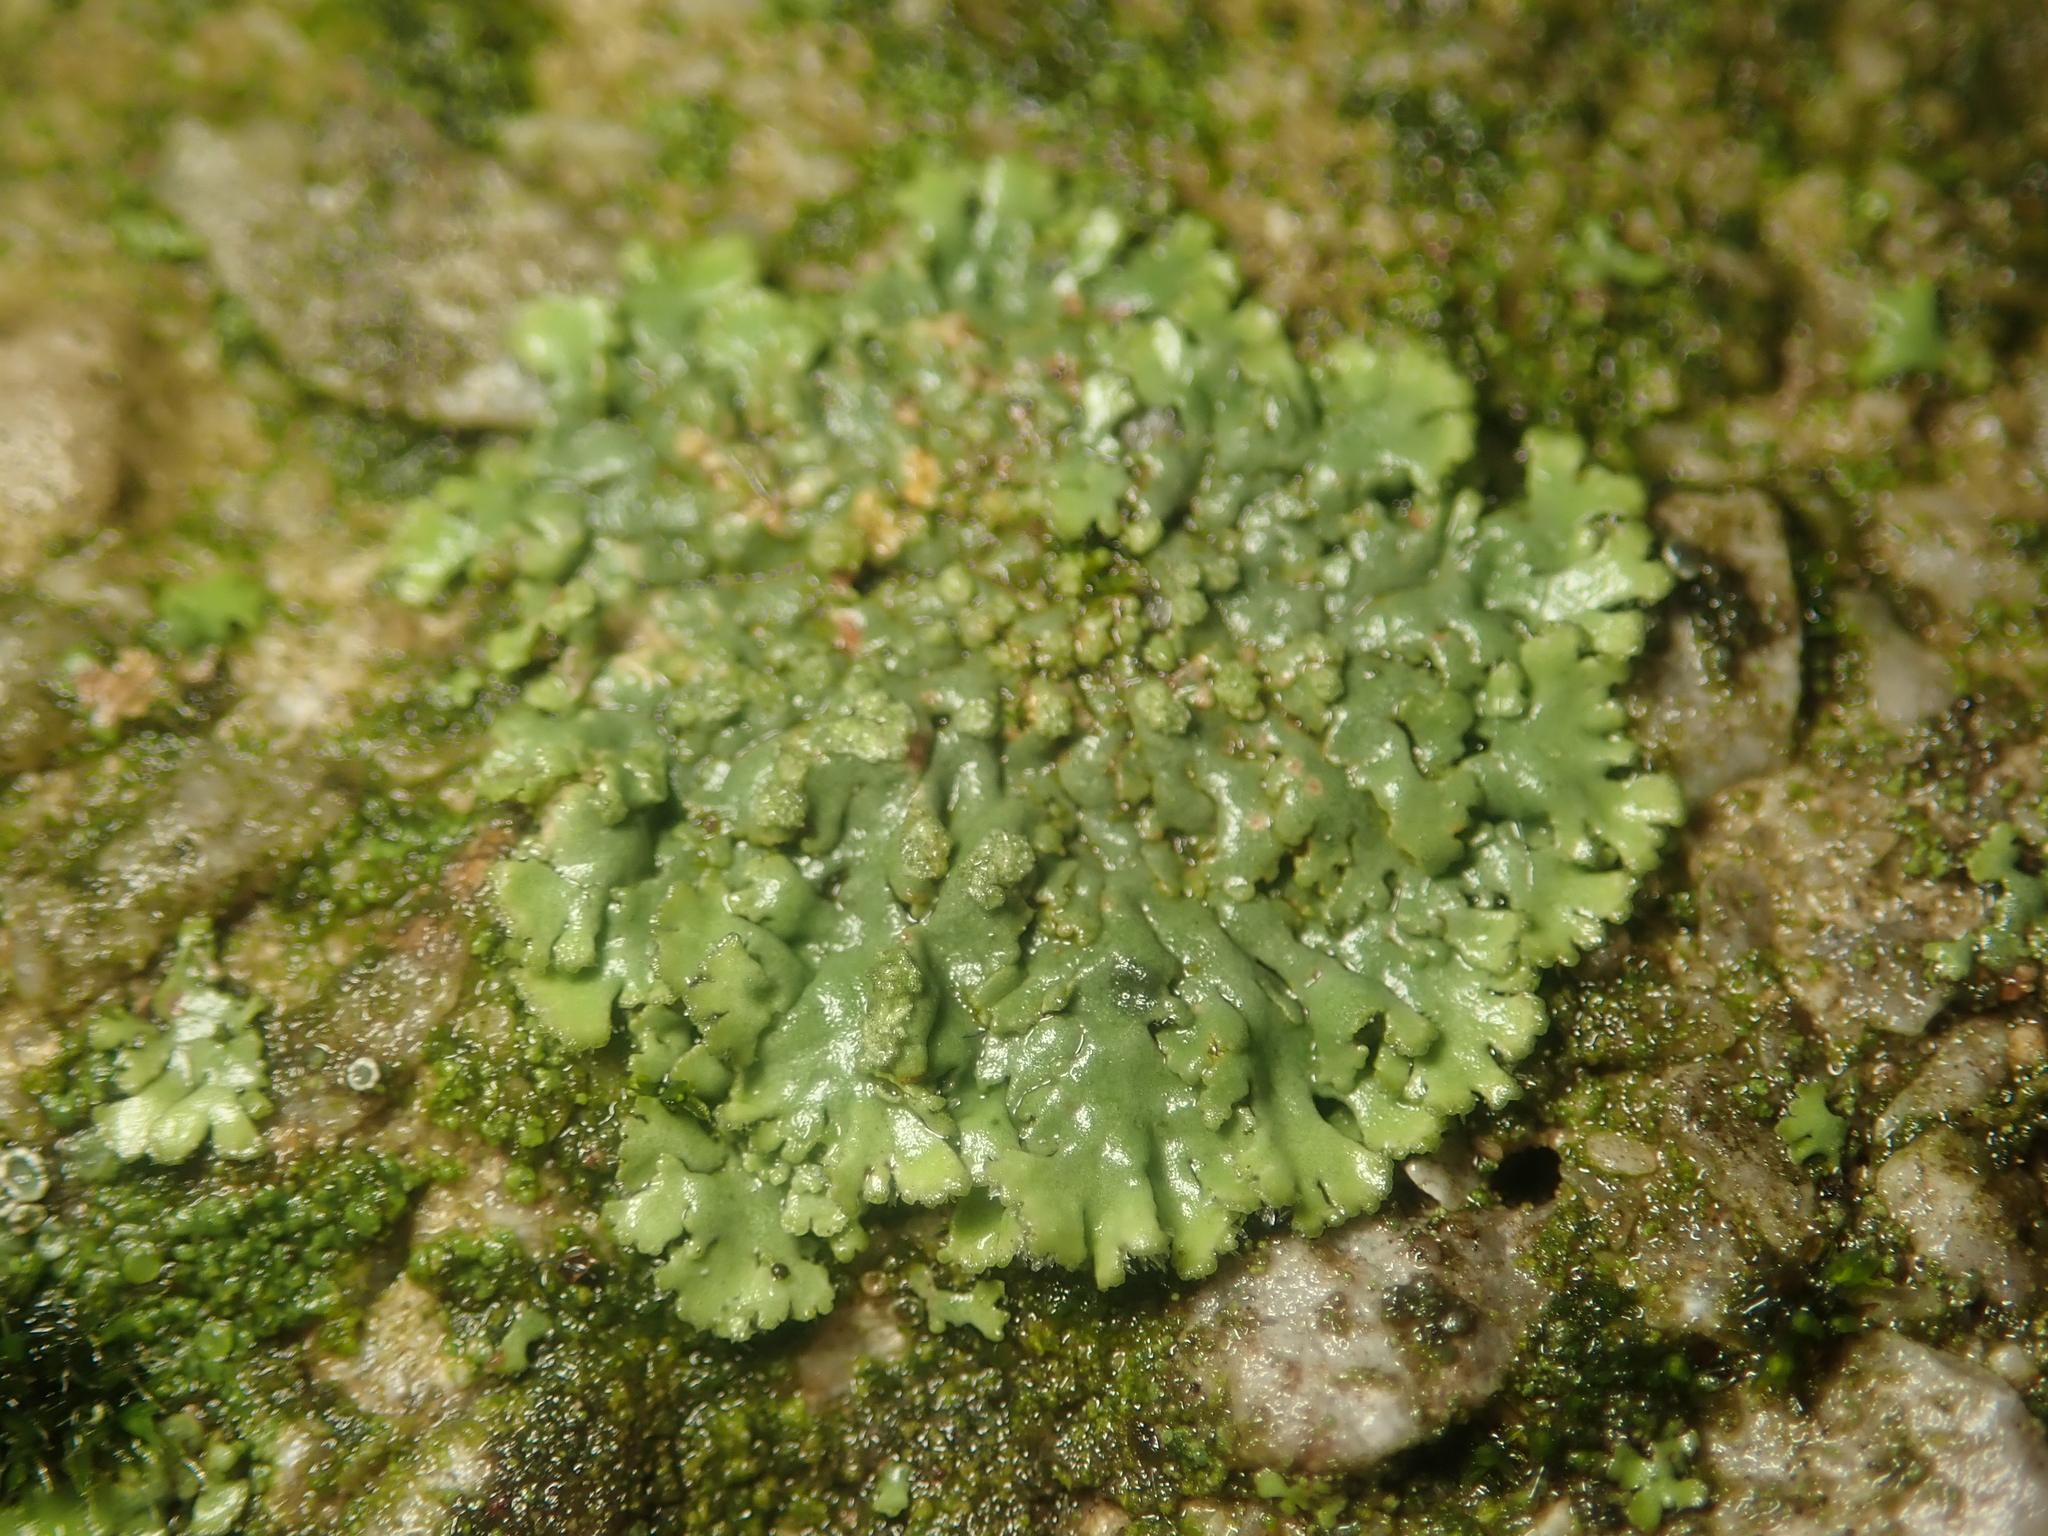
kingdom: Fungi
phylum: Ascomycota
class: Lecanoromycetes
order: Caliciales
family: Physciaceae
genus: Phaeophyscia
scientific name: Phaeophyscia orbicularis
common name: Mealy shadow lichen
